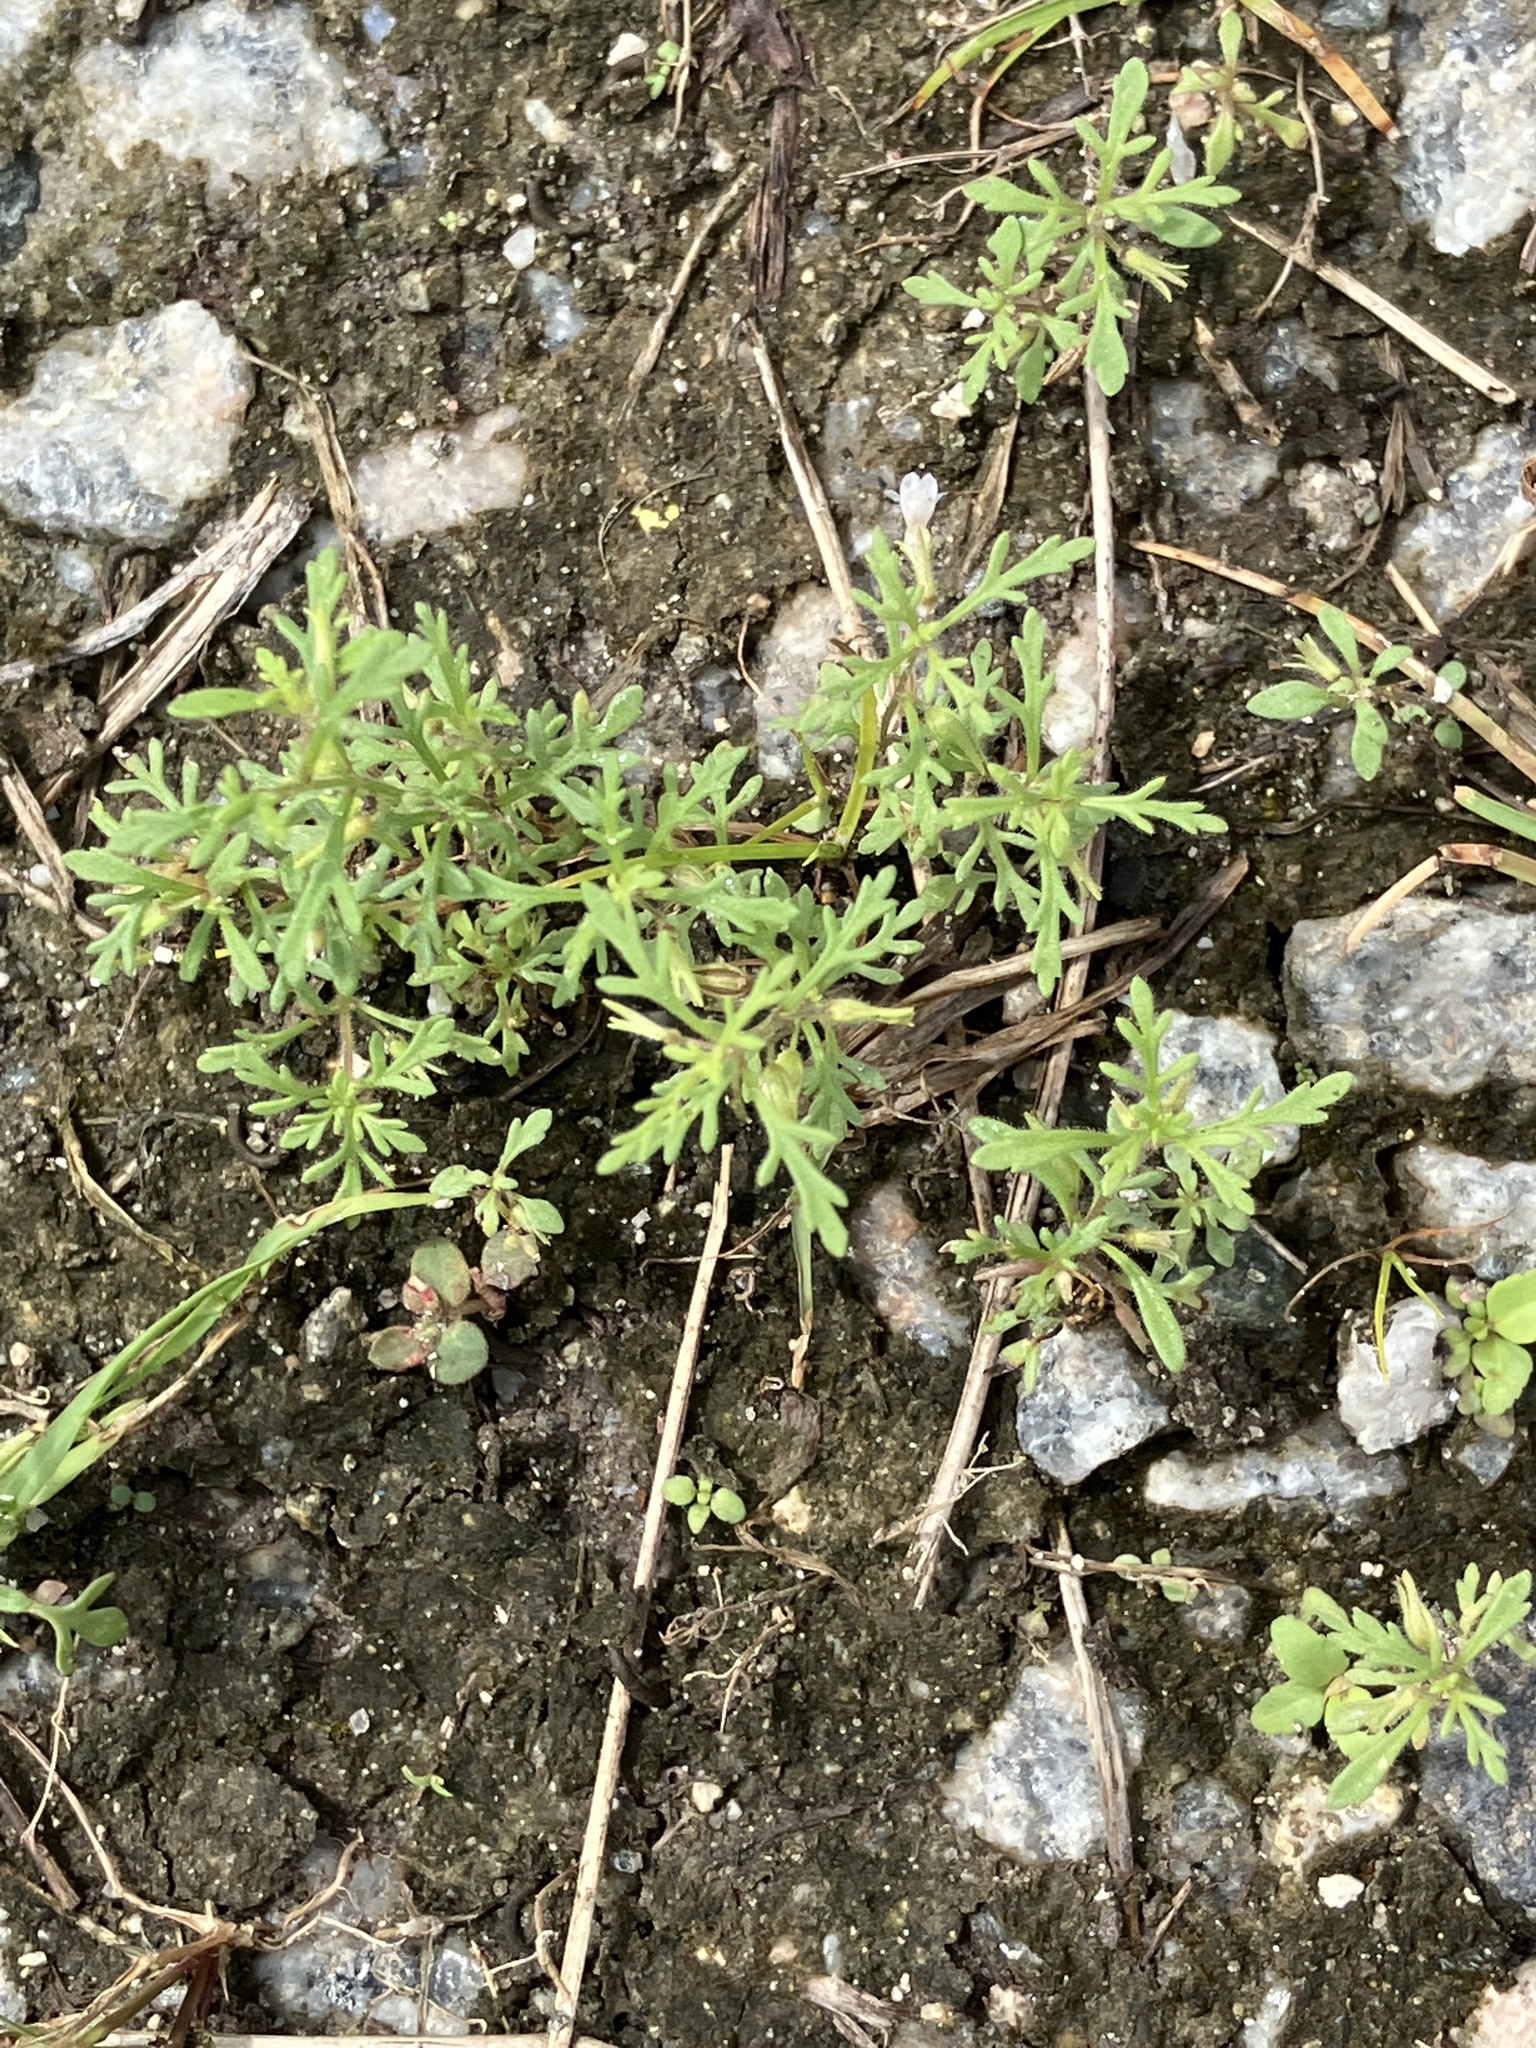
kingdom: Plantae
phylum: Tracheophyta
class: Magnoliopsida
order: Lamiales
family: Plantaginaceae
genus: Leucospora
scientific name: Leucospora multifida
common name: Narrow-leaf paleseed
